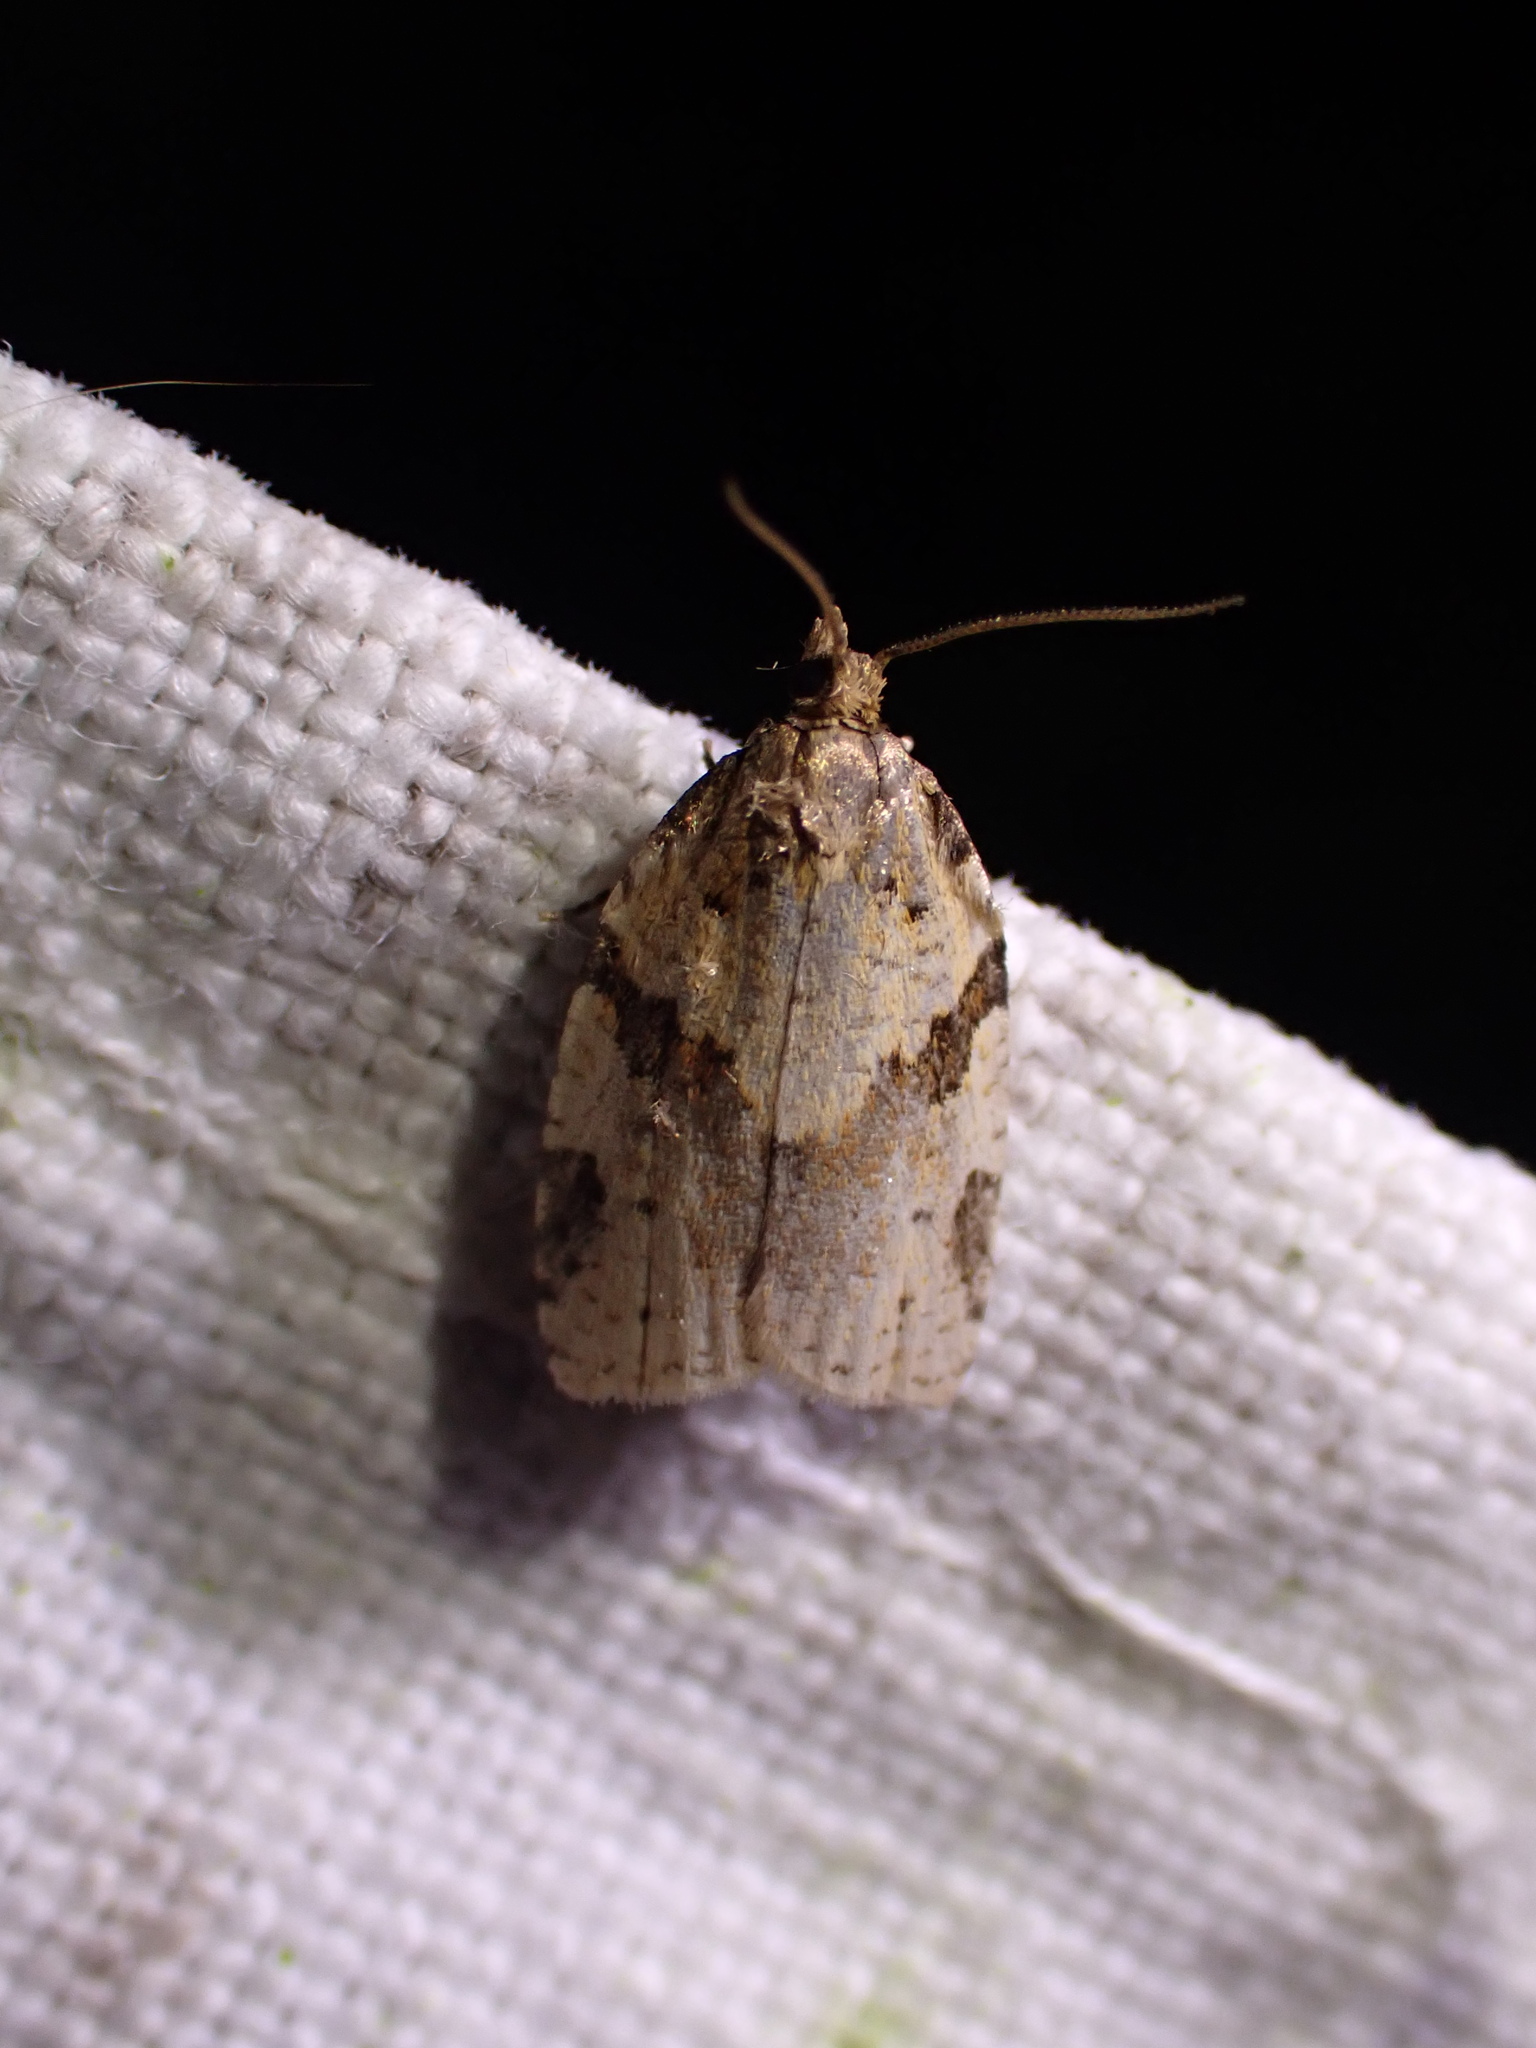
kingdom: Animalia
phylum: Arthropoda
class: Insecta
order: Lepidoptera
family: Tortricidae
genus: Clepsis
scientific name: Clepsis spectrana
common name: Cyclamen tortrix
